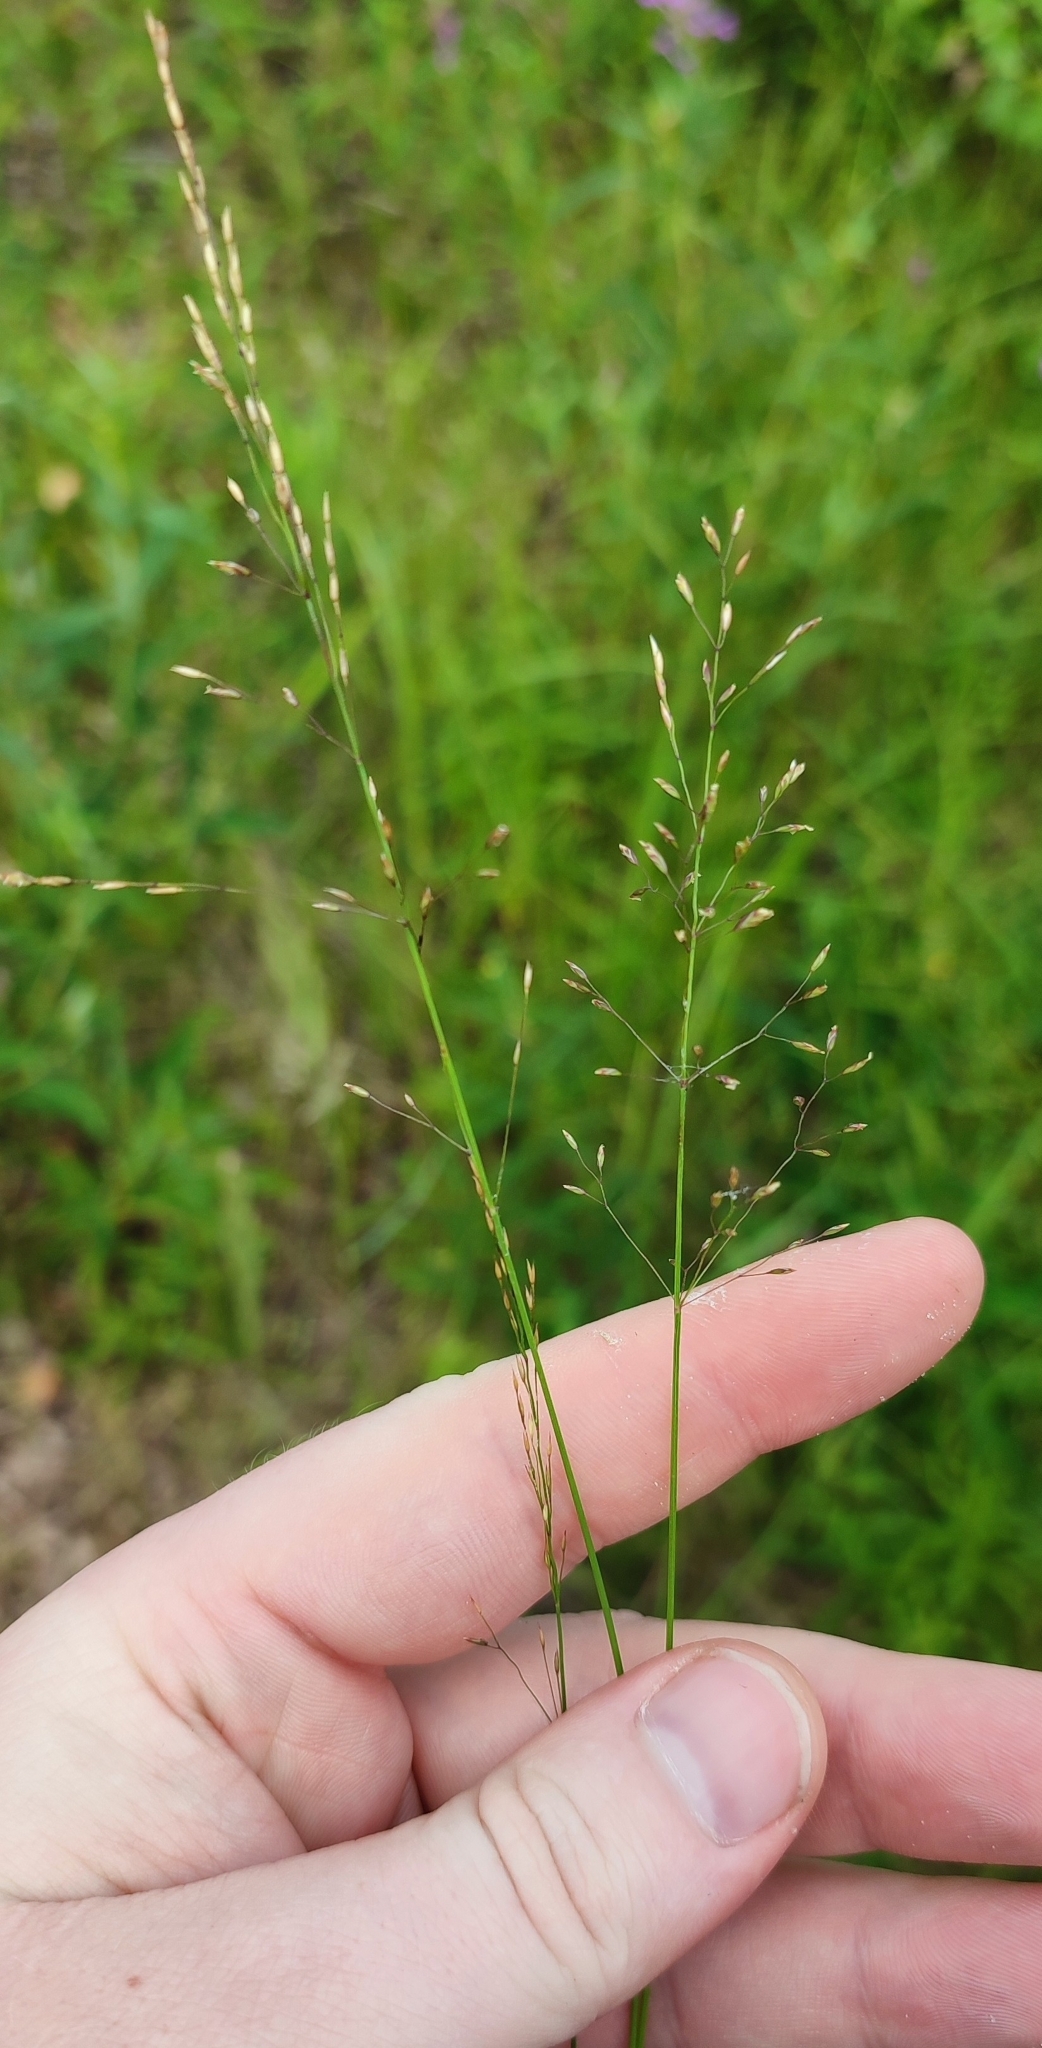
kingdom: Plantae
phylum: Tracheophyta
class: Liliopsida
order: Poales
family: Poaceae
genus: Poa
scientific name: Poa palustris
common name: Swamp meadow-grass
